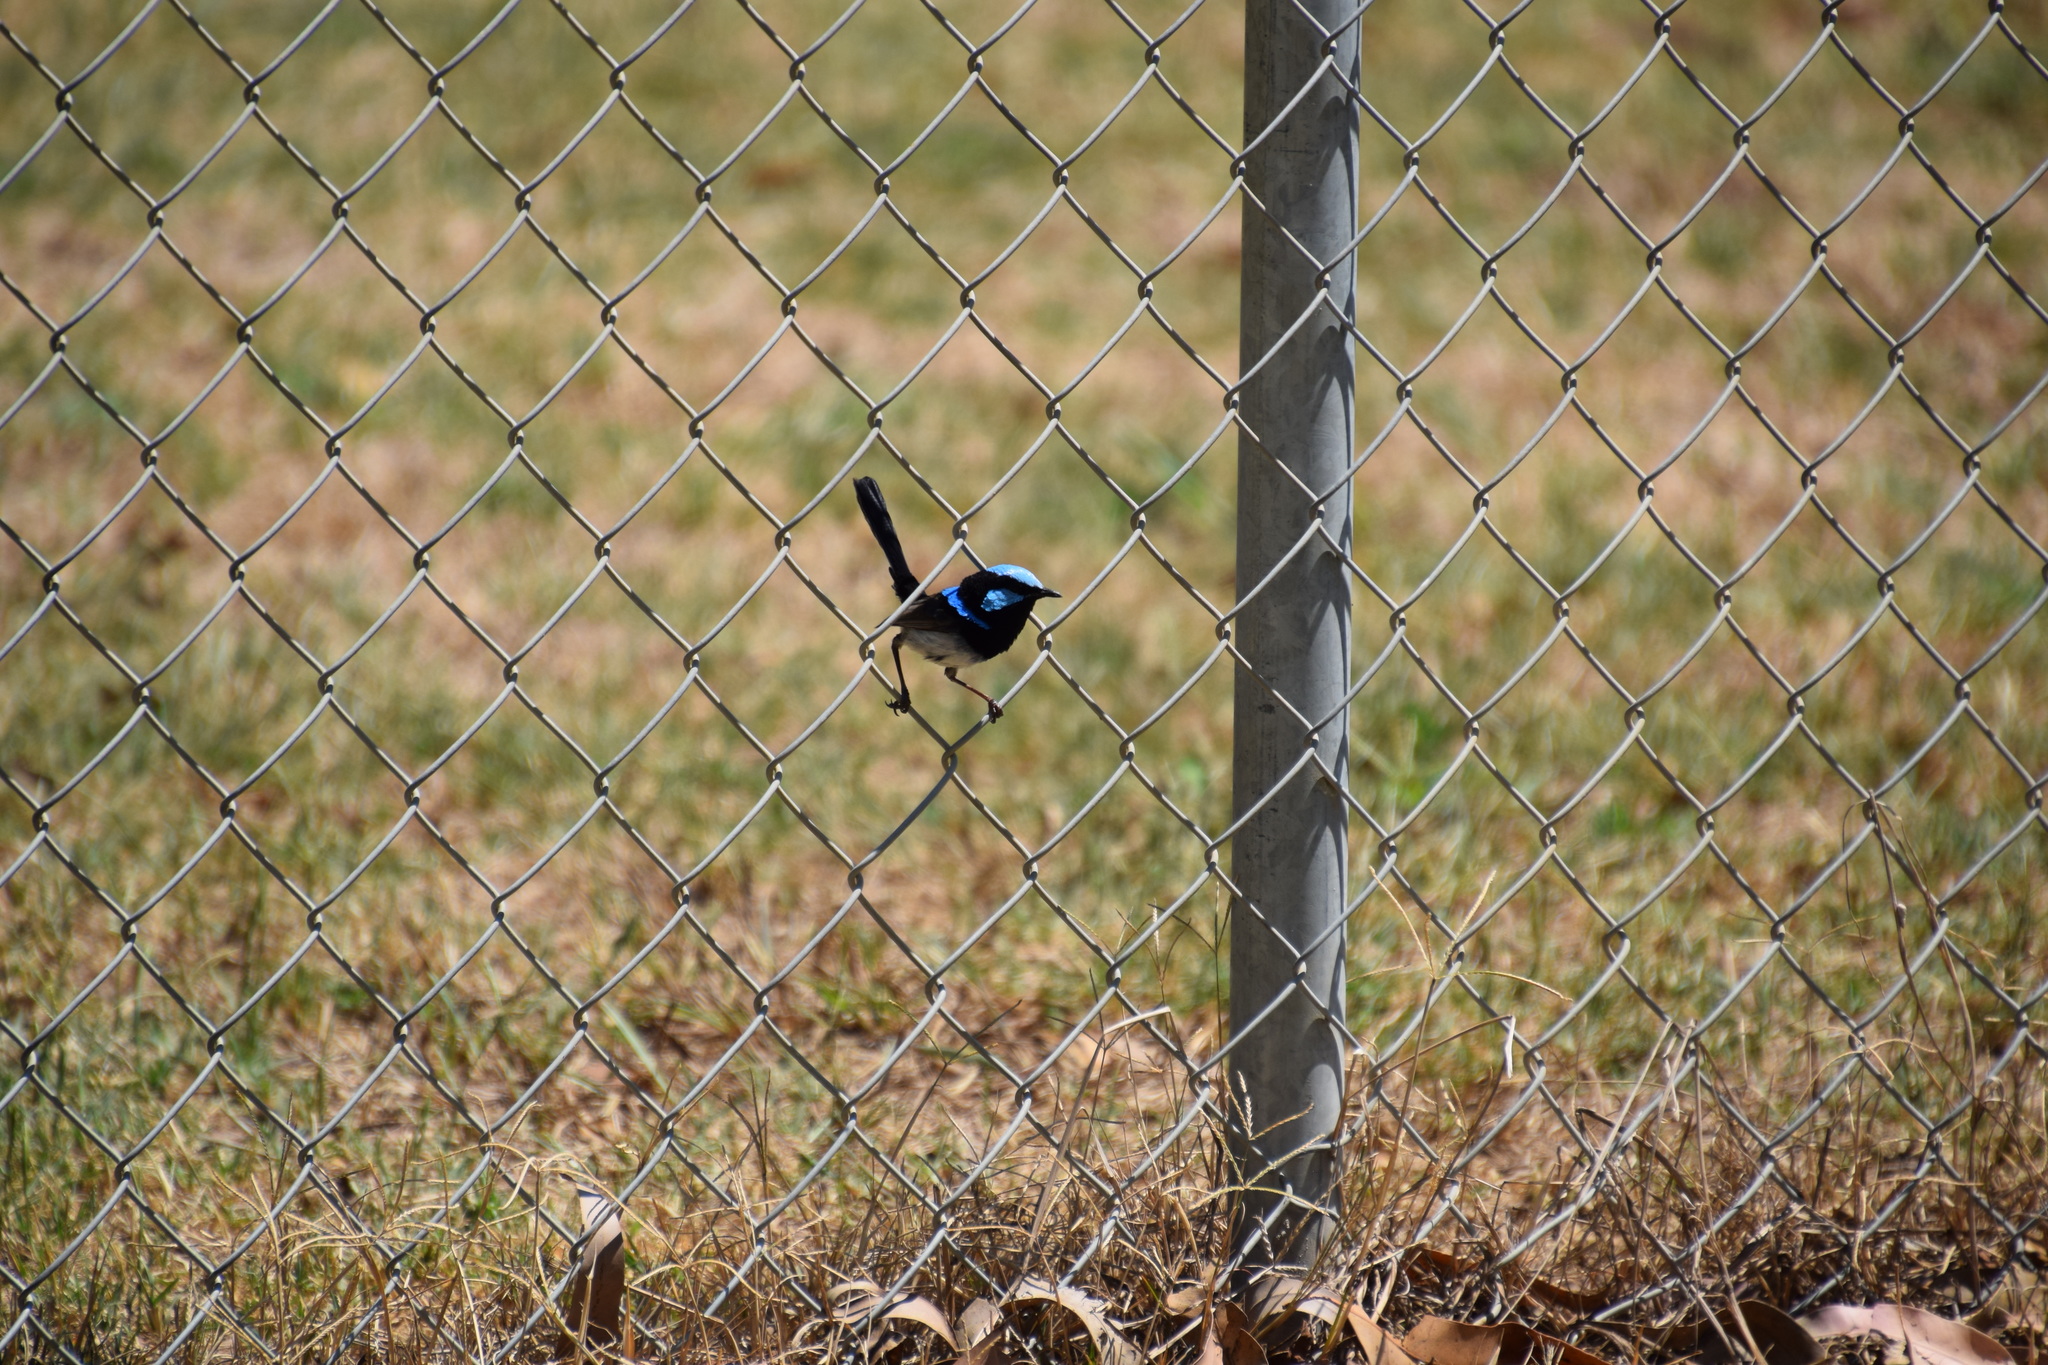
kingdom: Animalia
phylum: Chordata
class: Aves
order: Passeriformes
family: Maluridae
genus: Malurus
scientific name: Malurus cyaneus
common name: Superb fairywren
